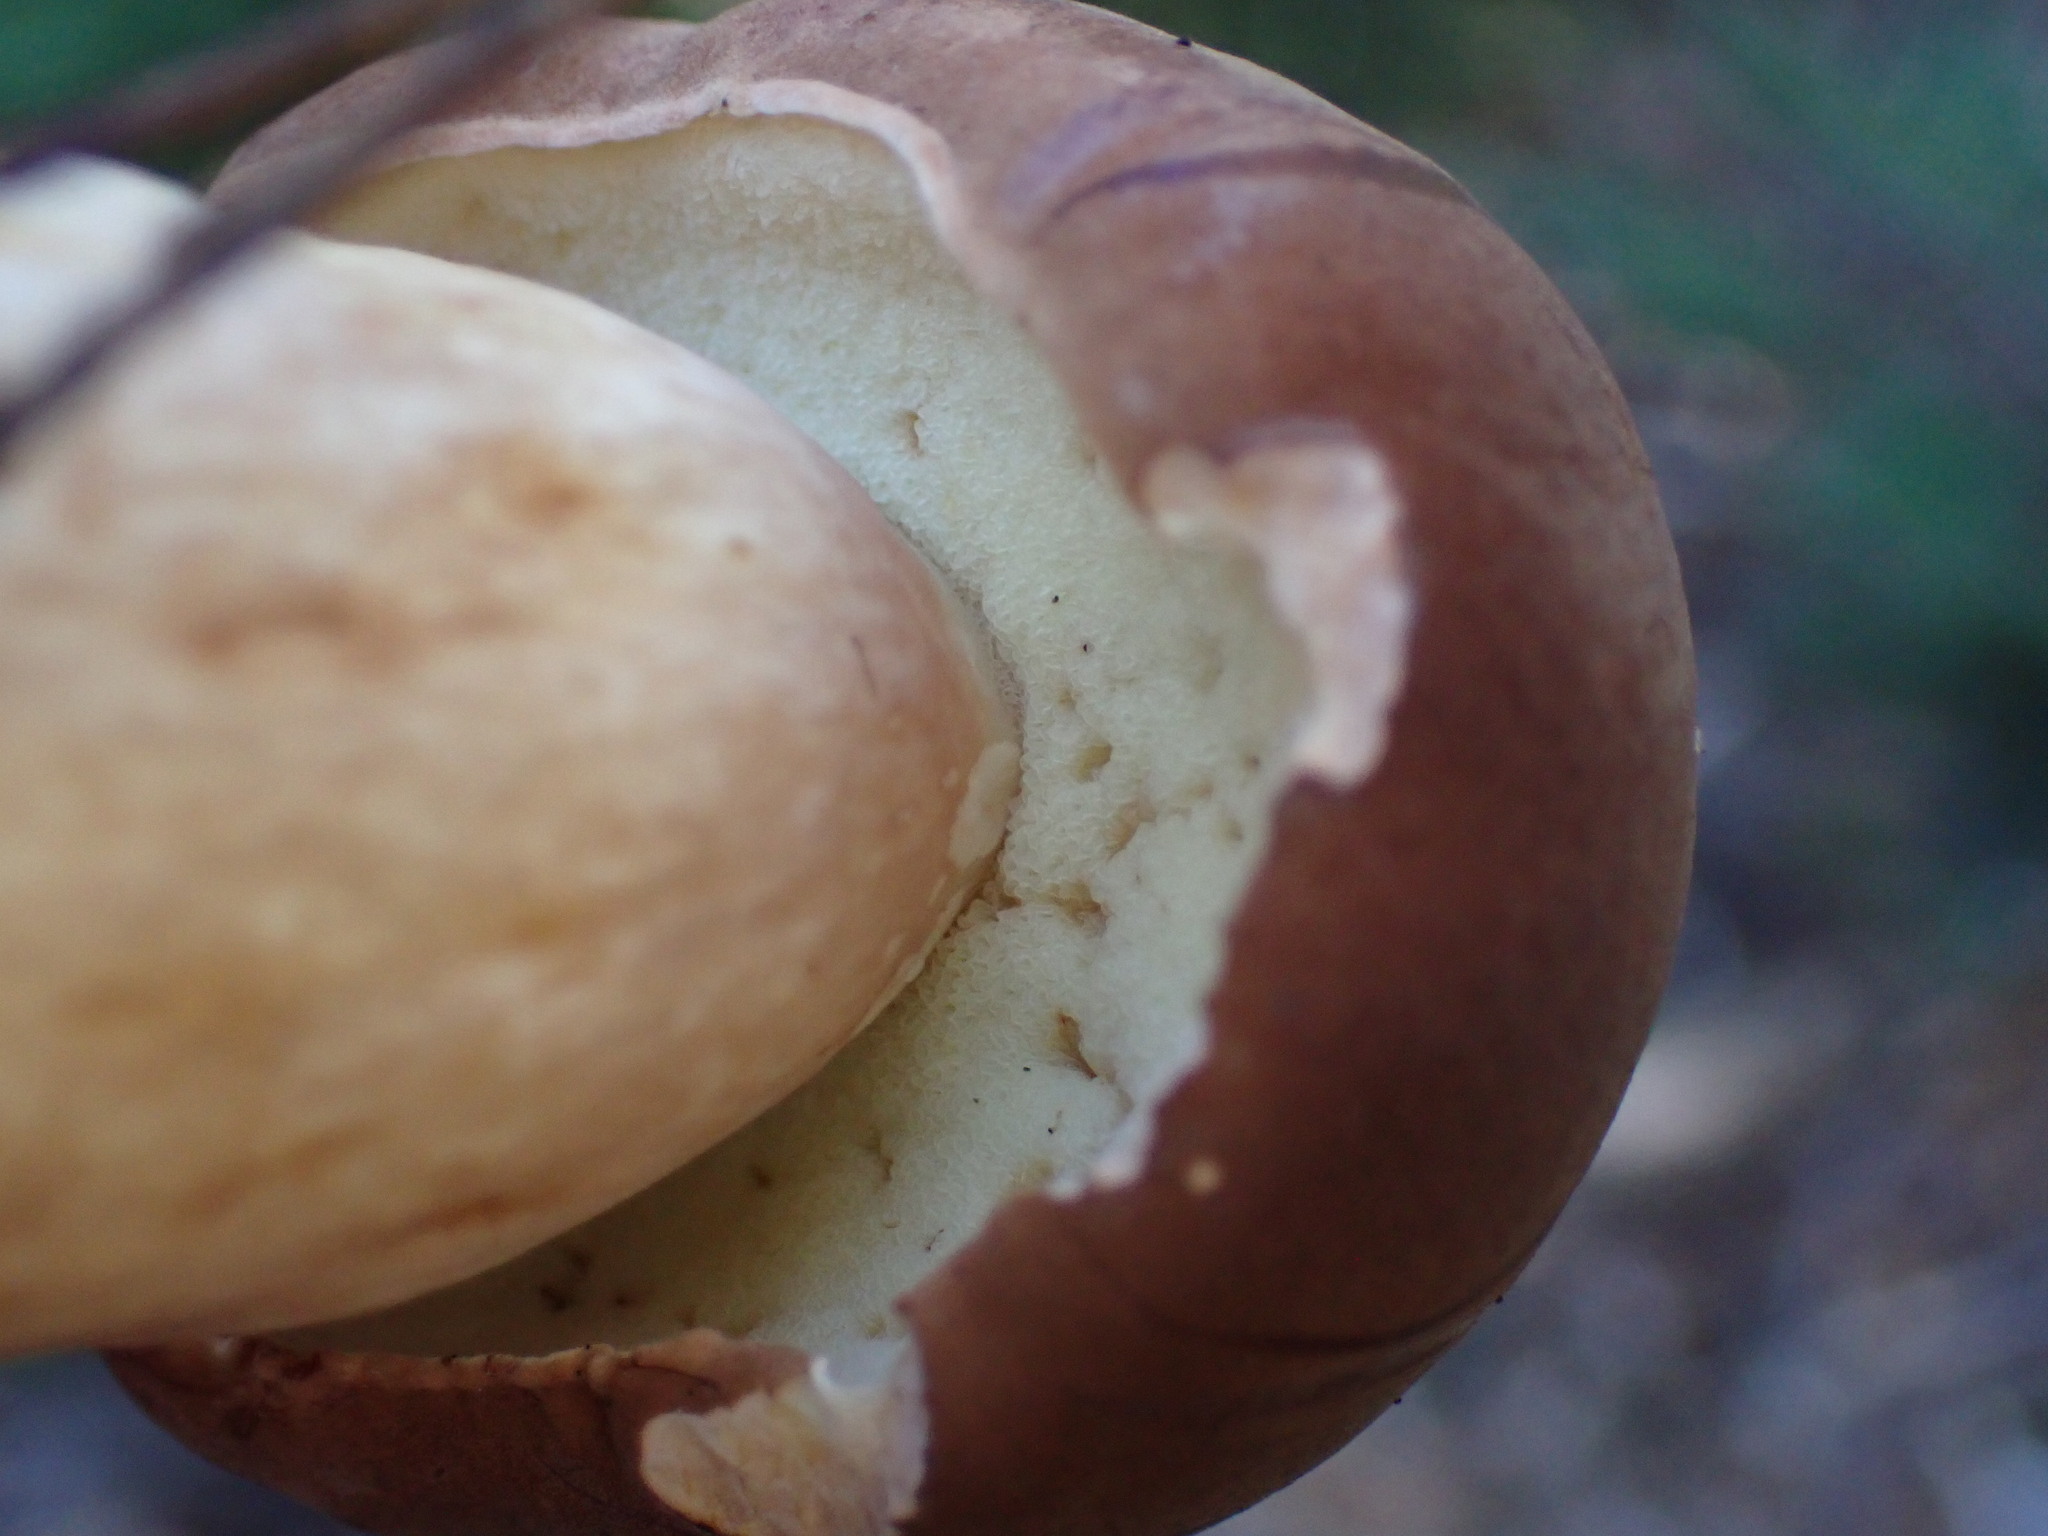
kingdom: Fungi
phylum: Basidiomycota
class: Agaricomycetes
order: Boletales
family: Boletaceae
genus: Imleria
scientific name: Imleria badia
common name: Bay bolete
